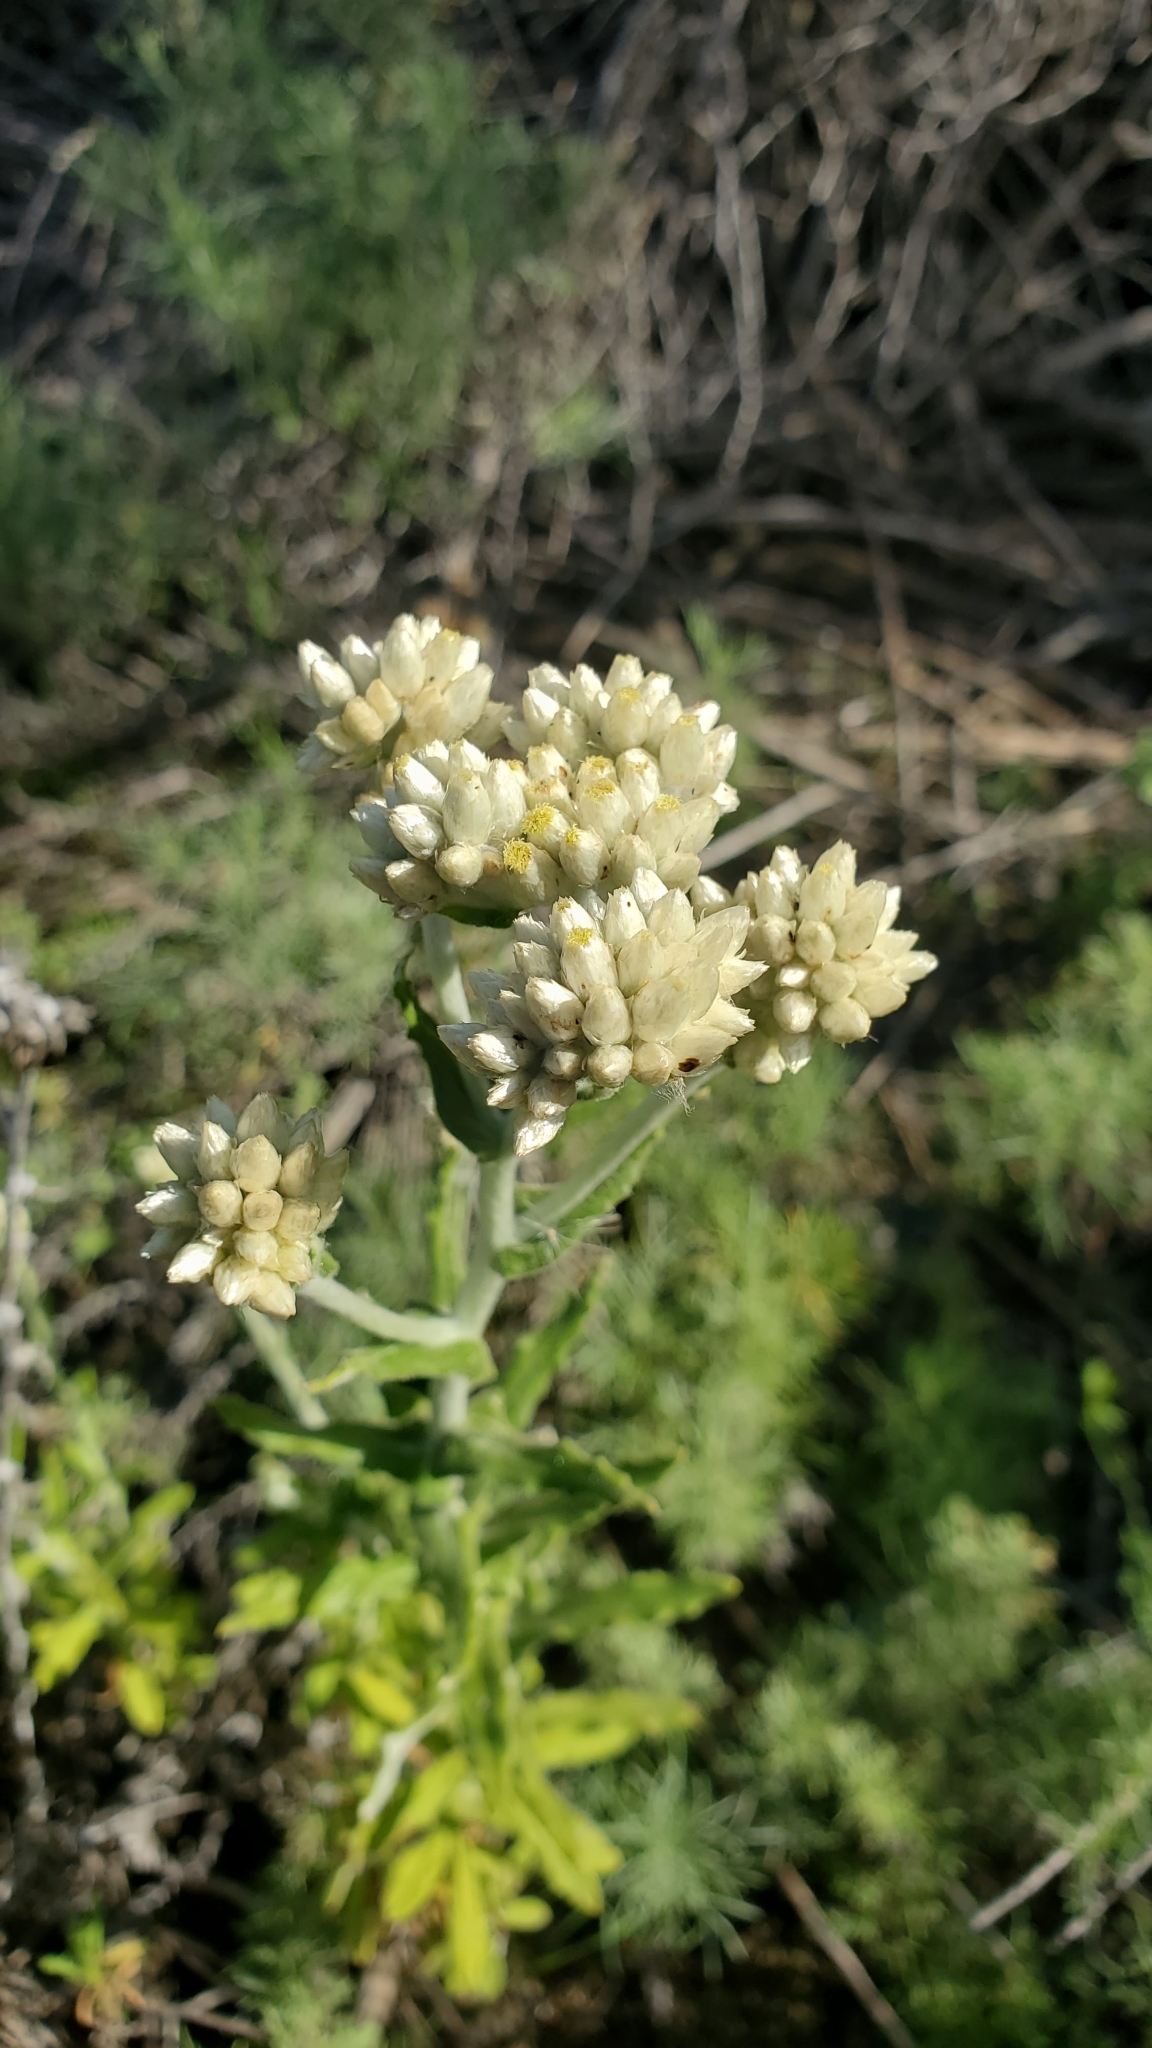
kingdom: Plantae
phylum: Tracheophyta
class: Magnoliopsida
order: Asterales
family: Asteraceae
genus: Pseudognaphalium
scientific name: Pseudognaphalium biolettii
